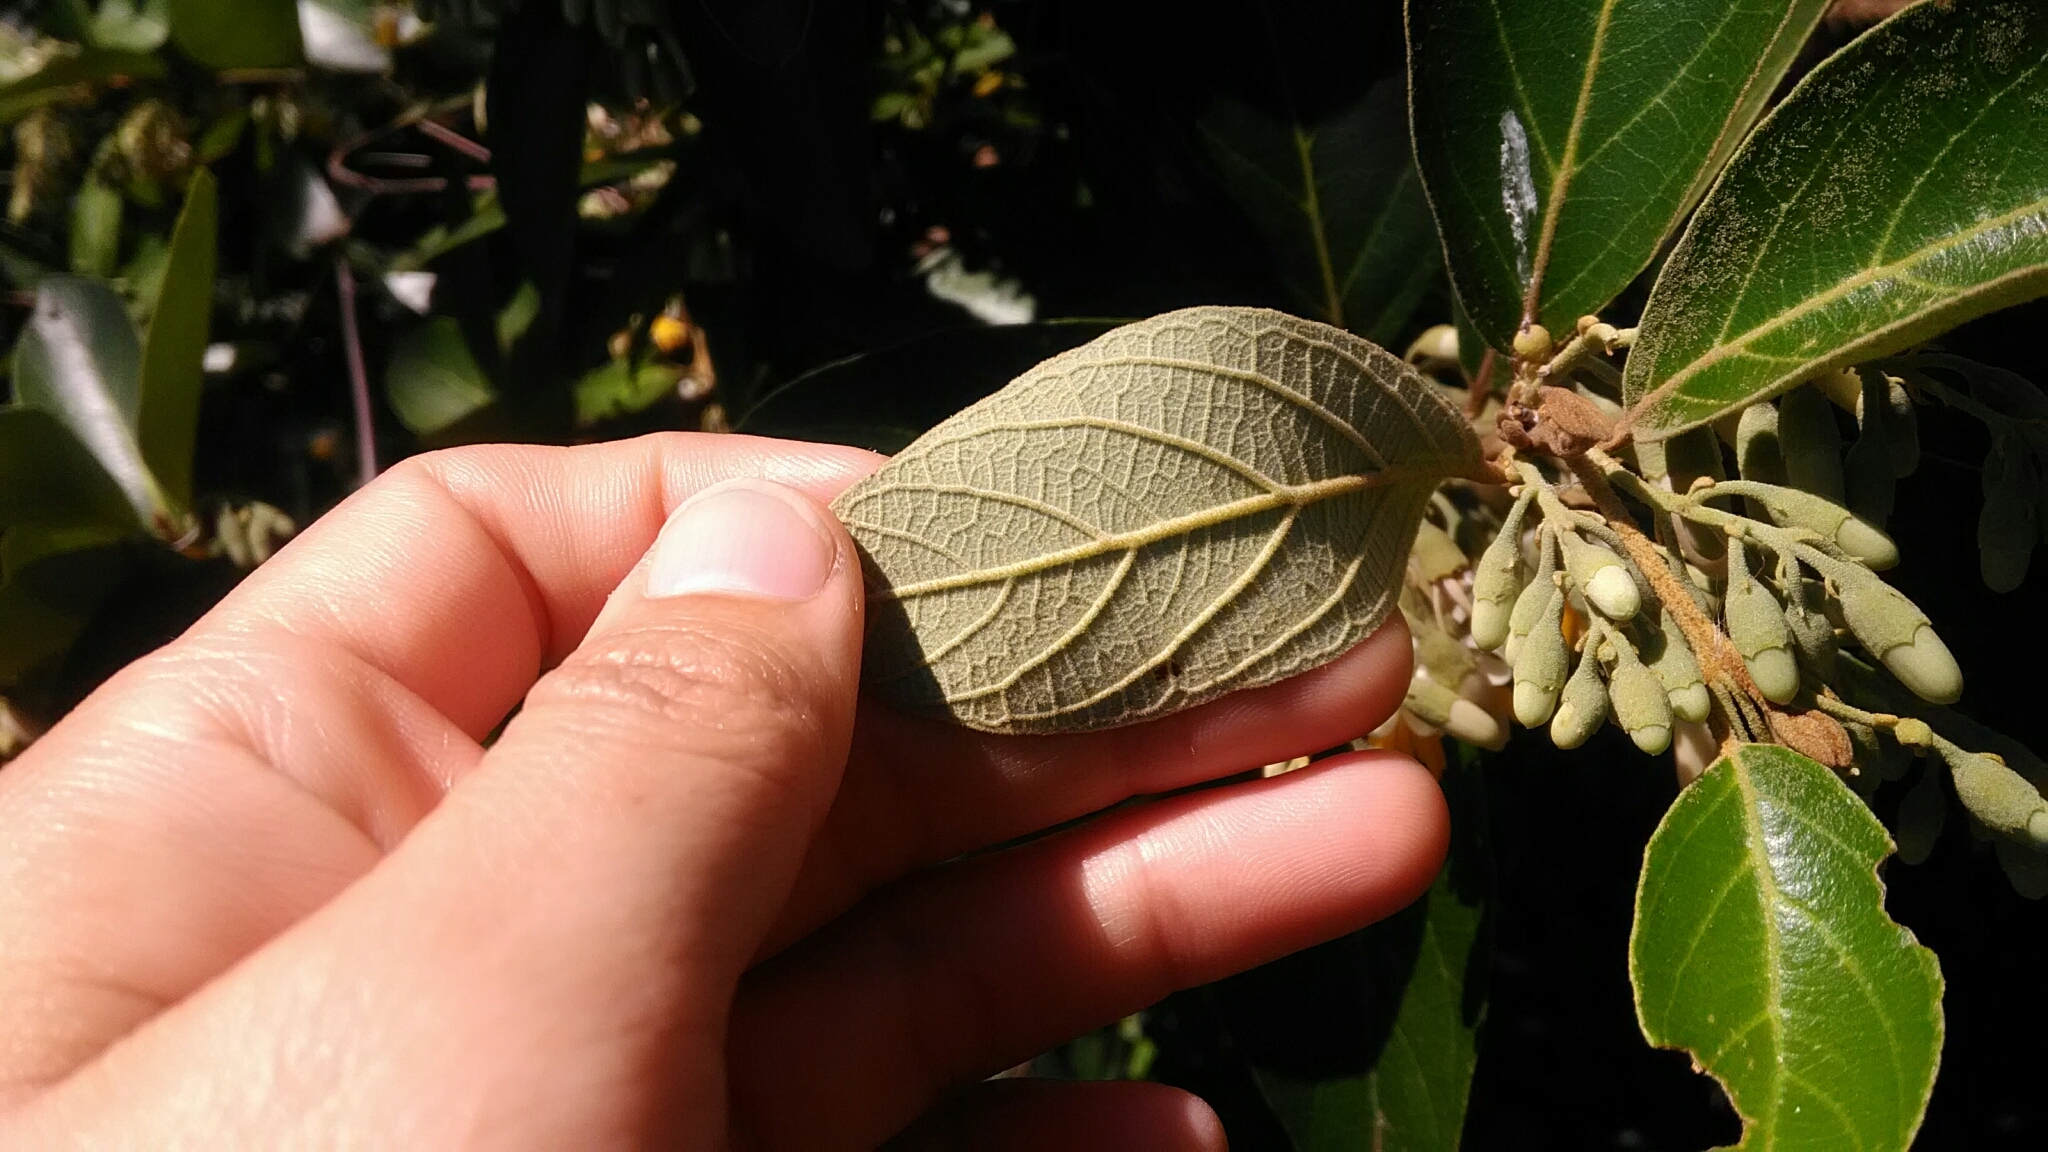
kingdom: Plantae
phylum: Tracheophyta
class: Magnoliopsida
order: Ericales
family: Styracaceae
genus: Styrax
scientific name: Styrax camporum
